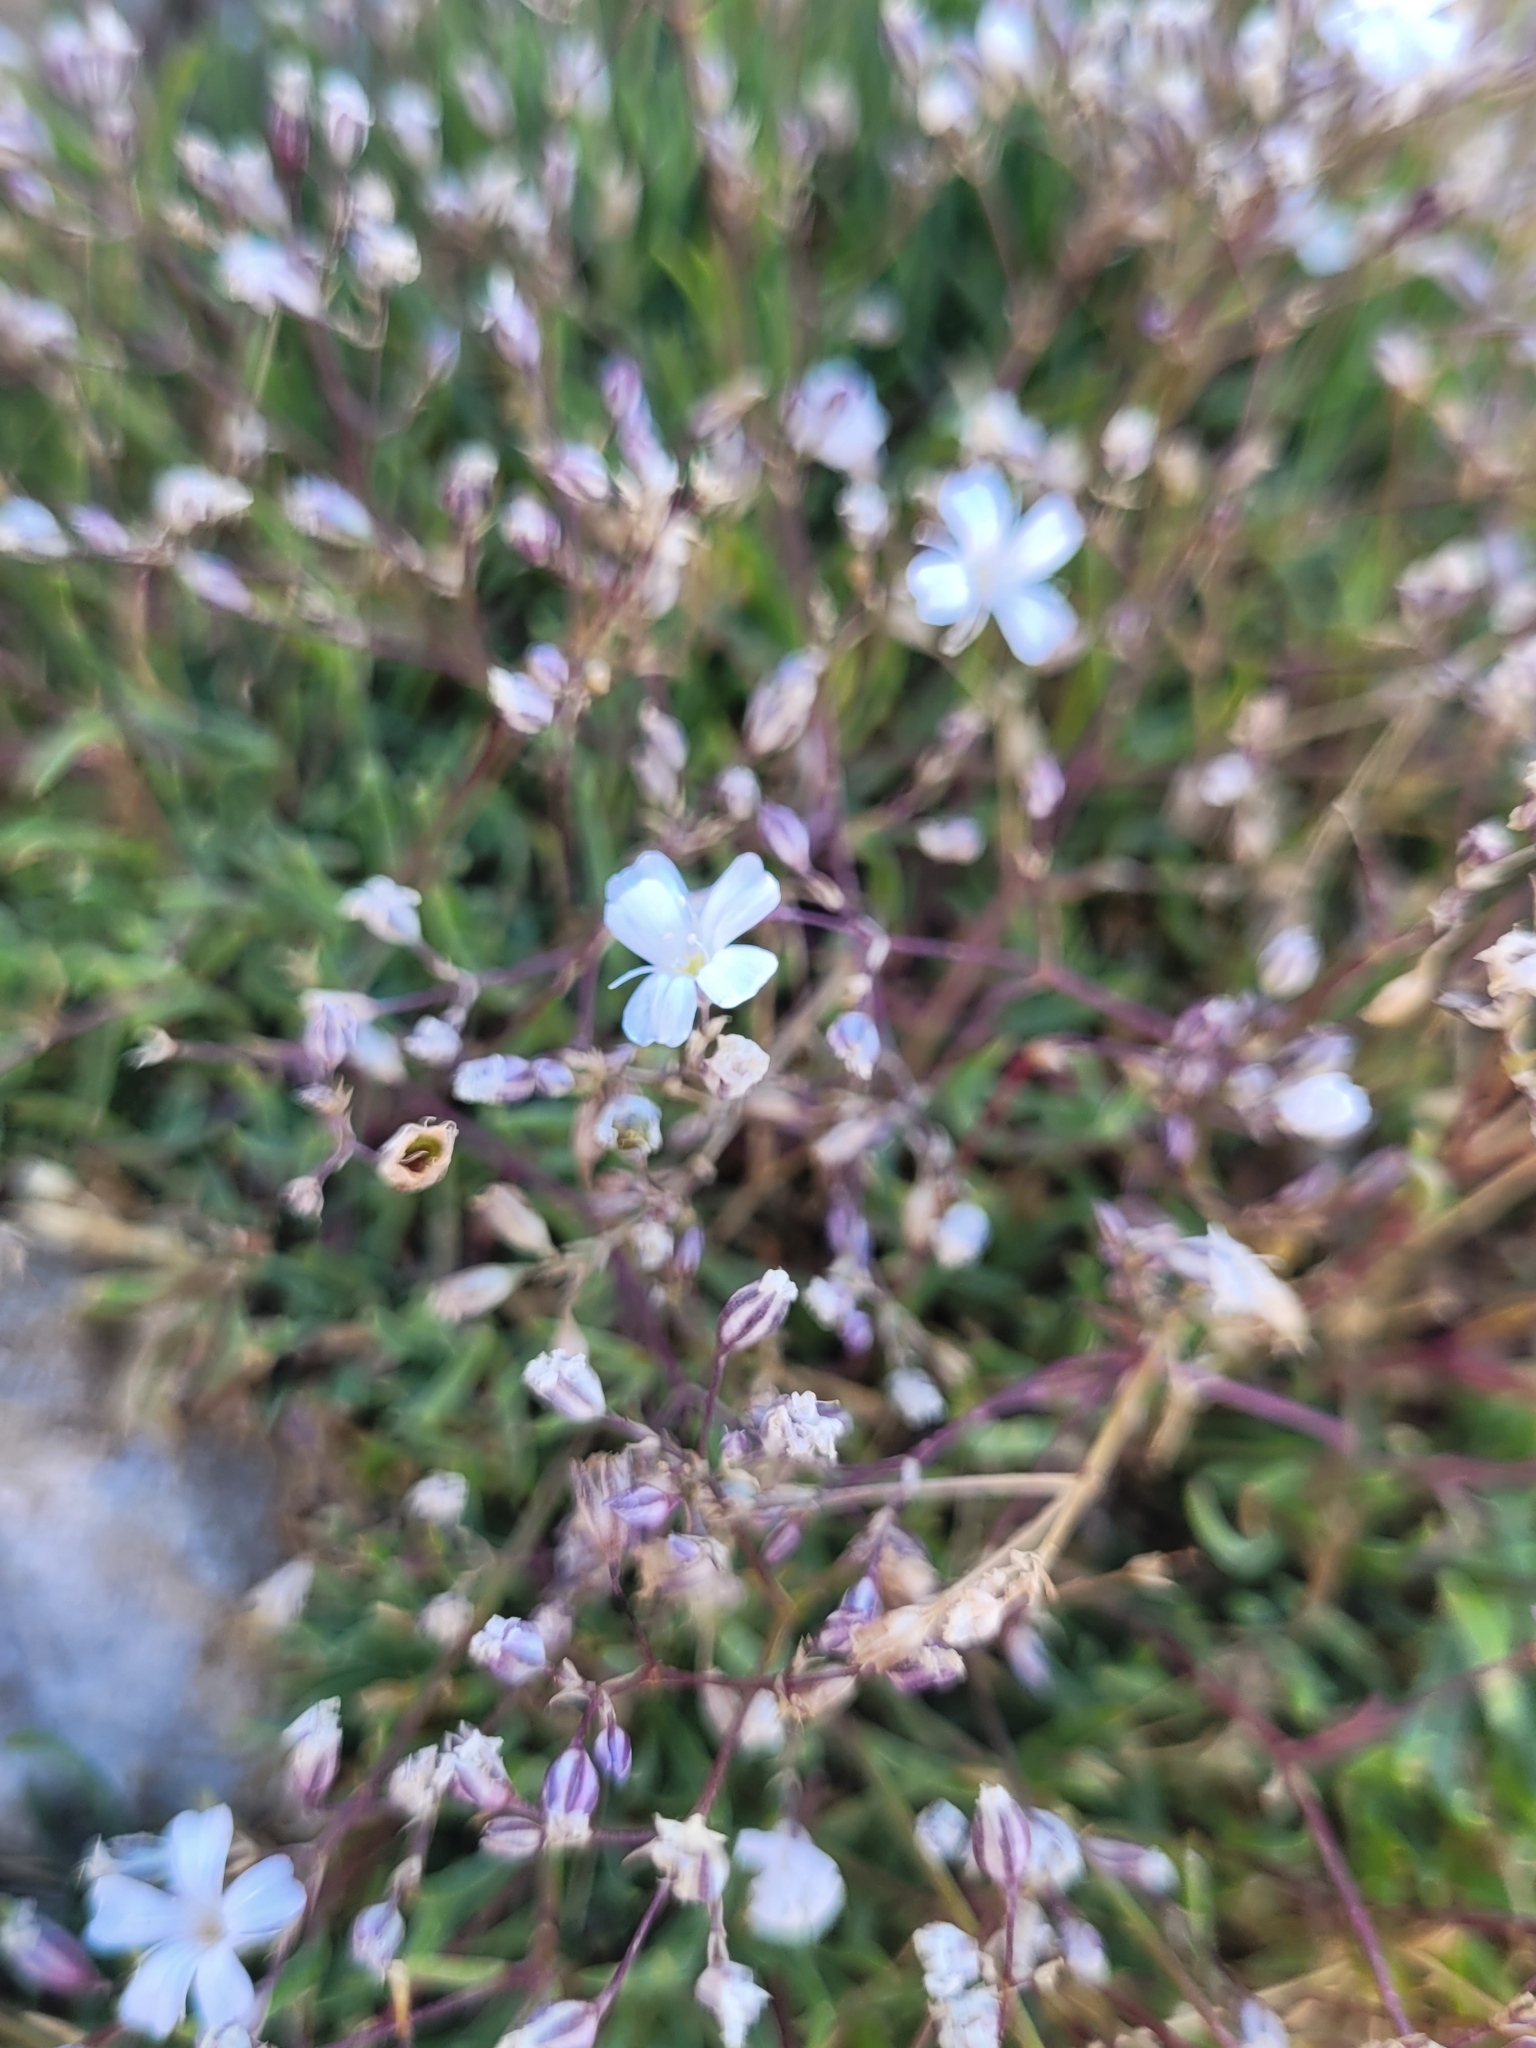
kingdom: Plantae
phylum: Tracheophyta
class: Magnoliopsida
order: Caryophyllales
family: Caryophyllaceae
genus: Gypsophila
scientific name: Gypsophila repens
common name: Creeping baby's-breath
